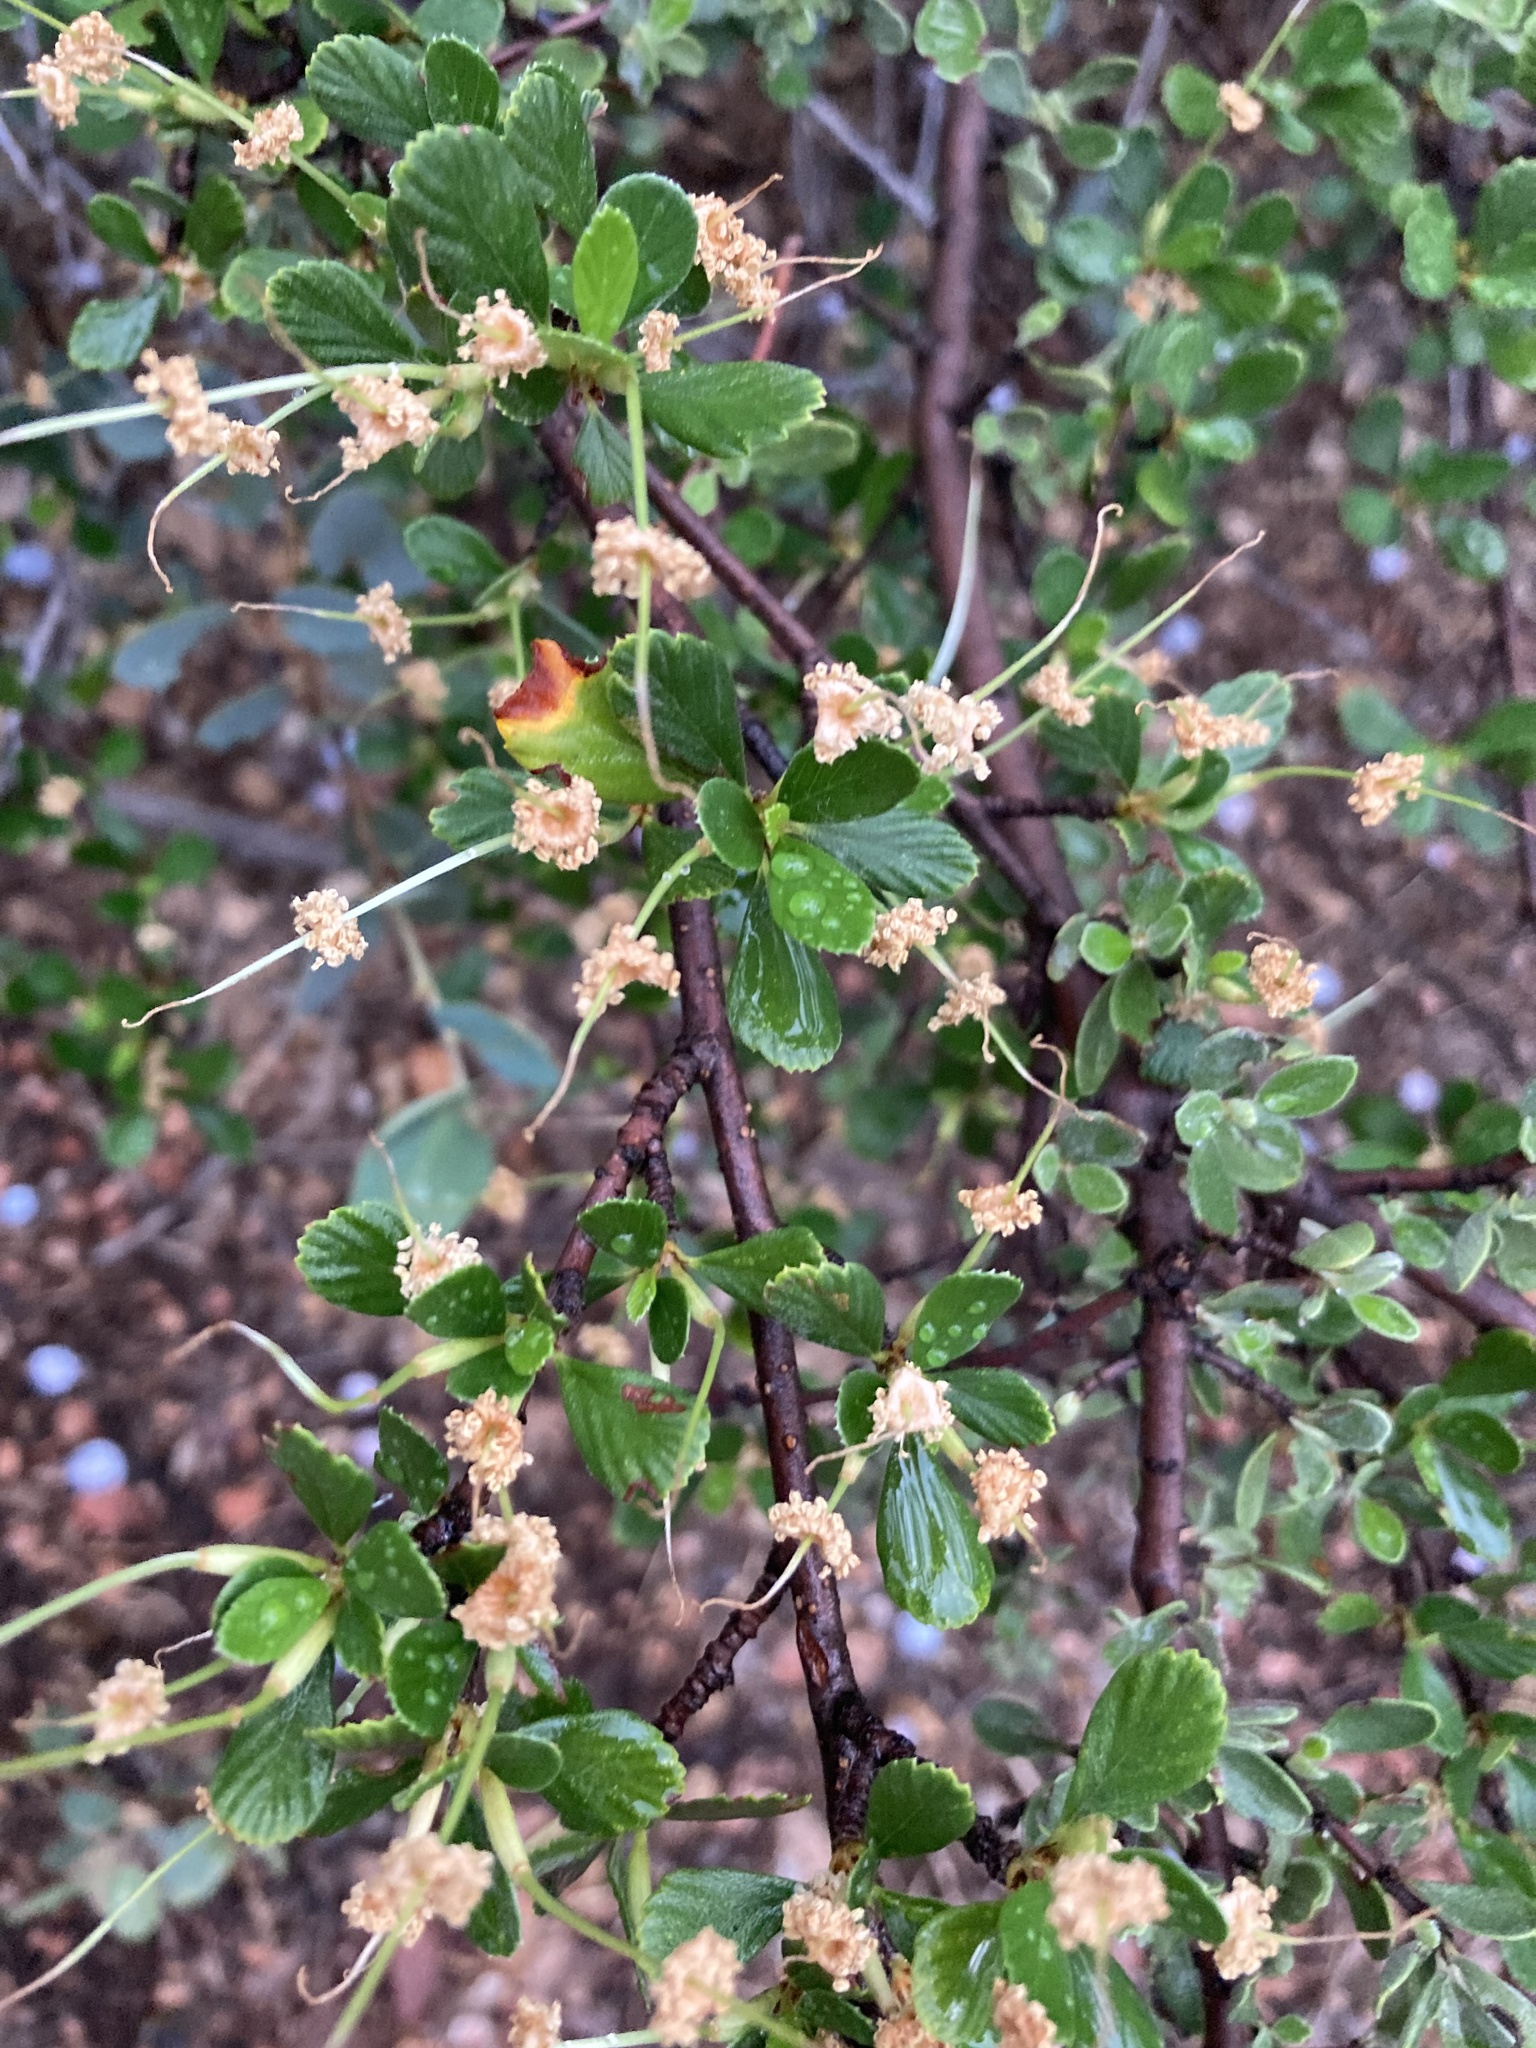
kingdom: Plantae
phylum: Tracheophyta
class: Magnoliopsida
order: Rosales
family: Rosaceae
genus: Cercocarpus
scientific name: Cercocarpus montanus
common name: Alder-leaf cercocarpus
